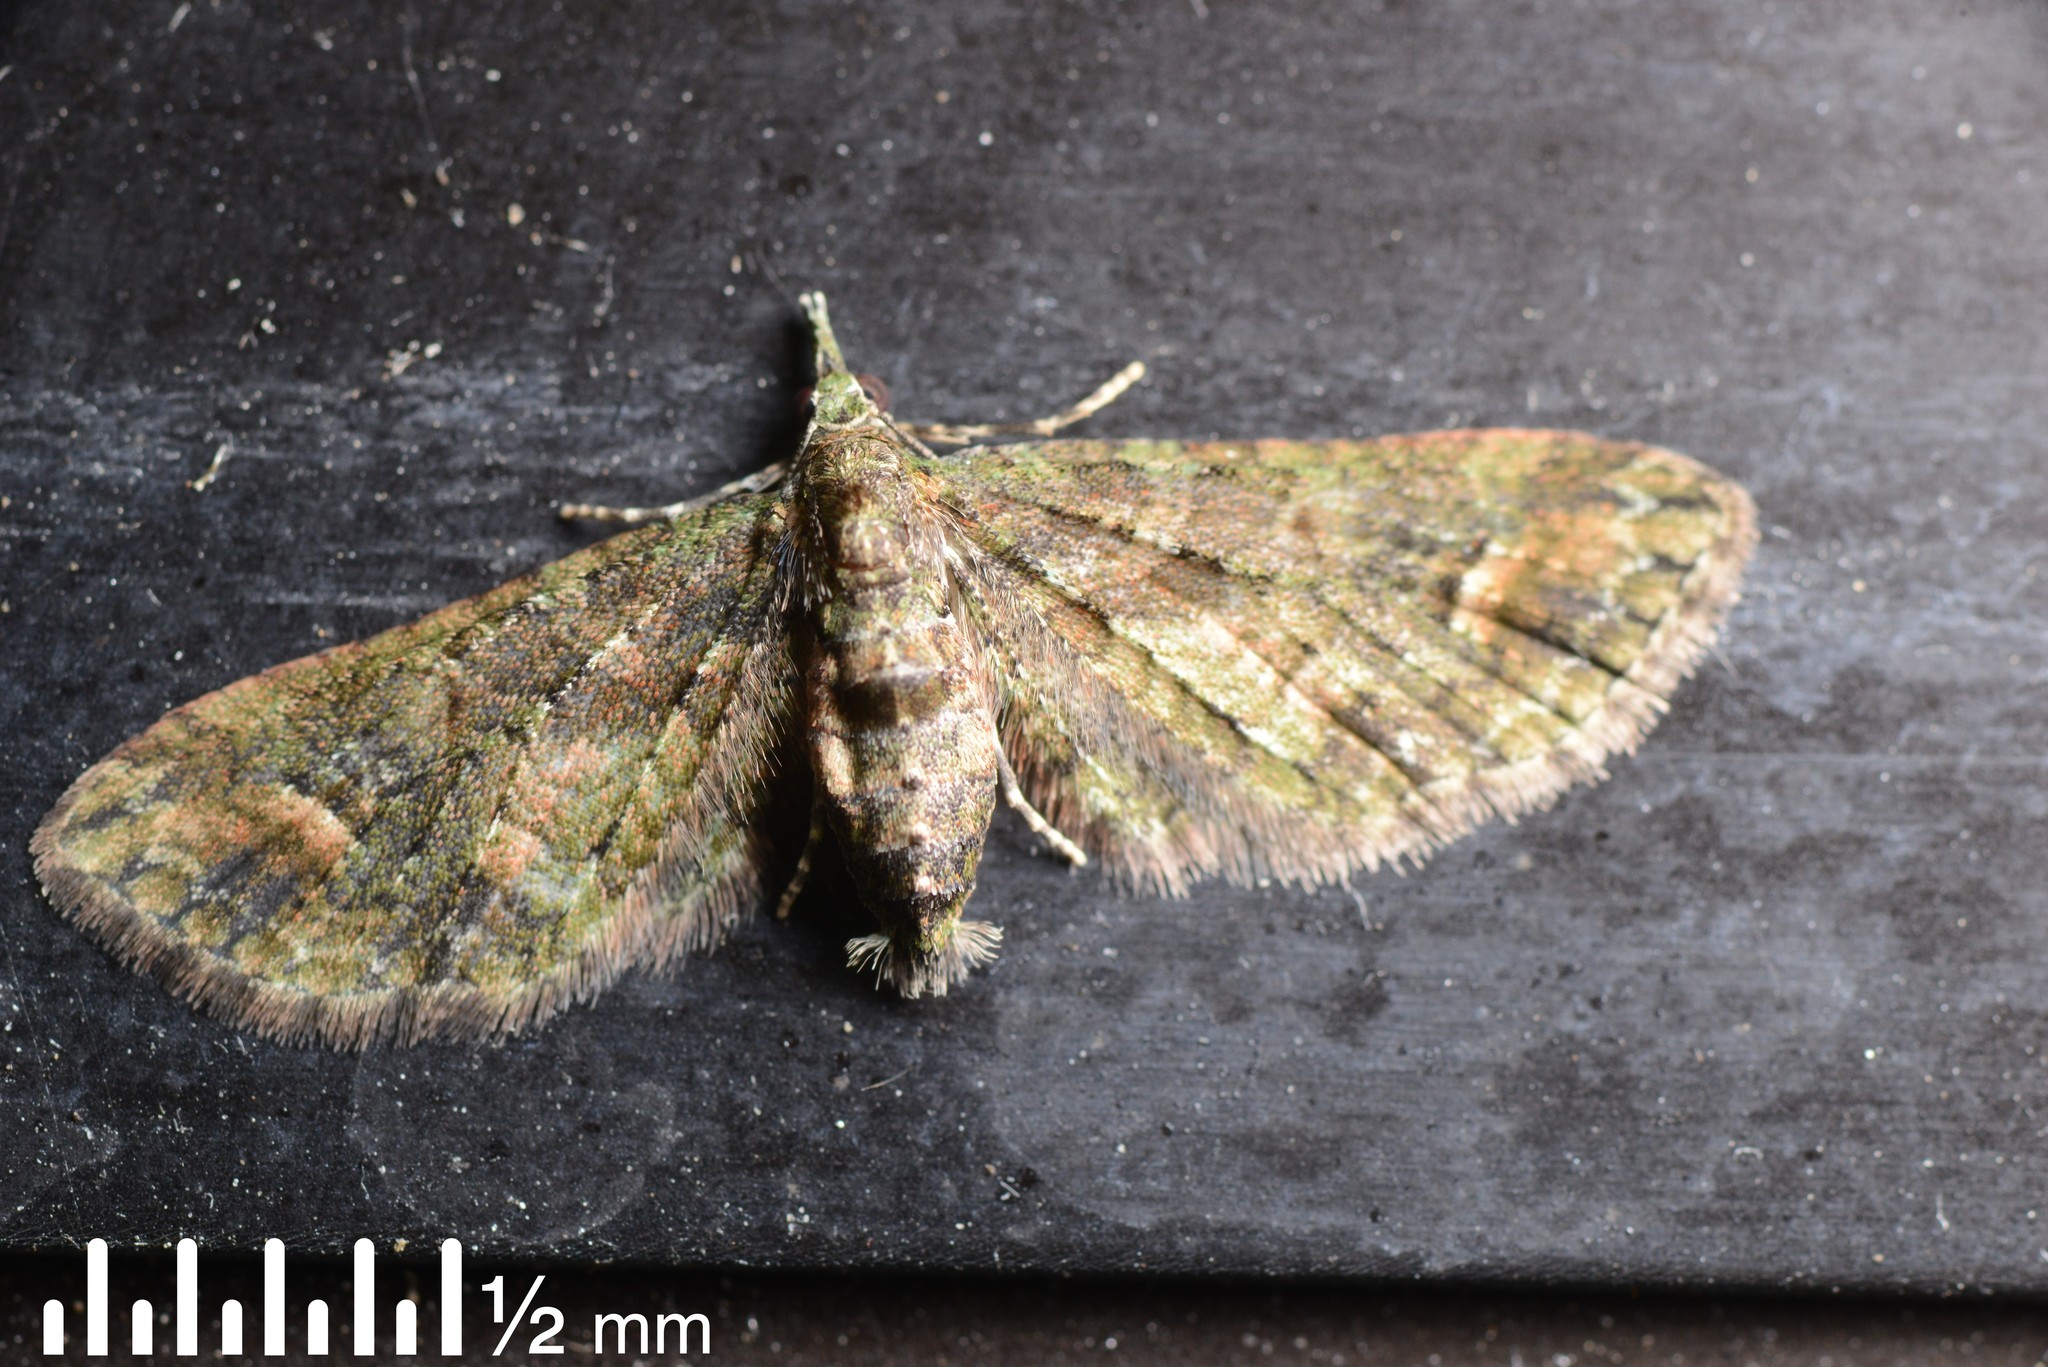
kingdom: Animalia
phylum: Arthropoda
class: Insecta
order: Lepidoptera
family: Geometridae
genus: Idaea
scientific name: Idaea mutanda
